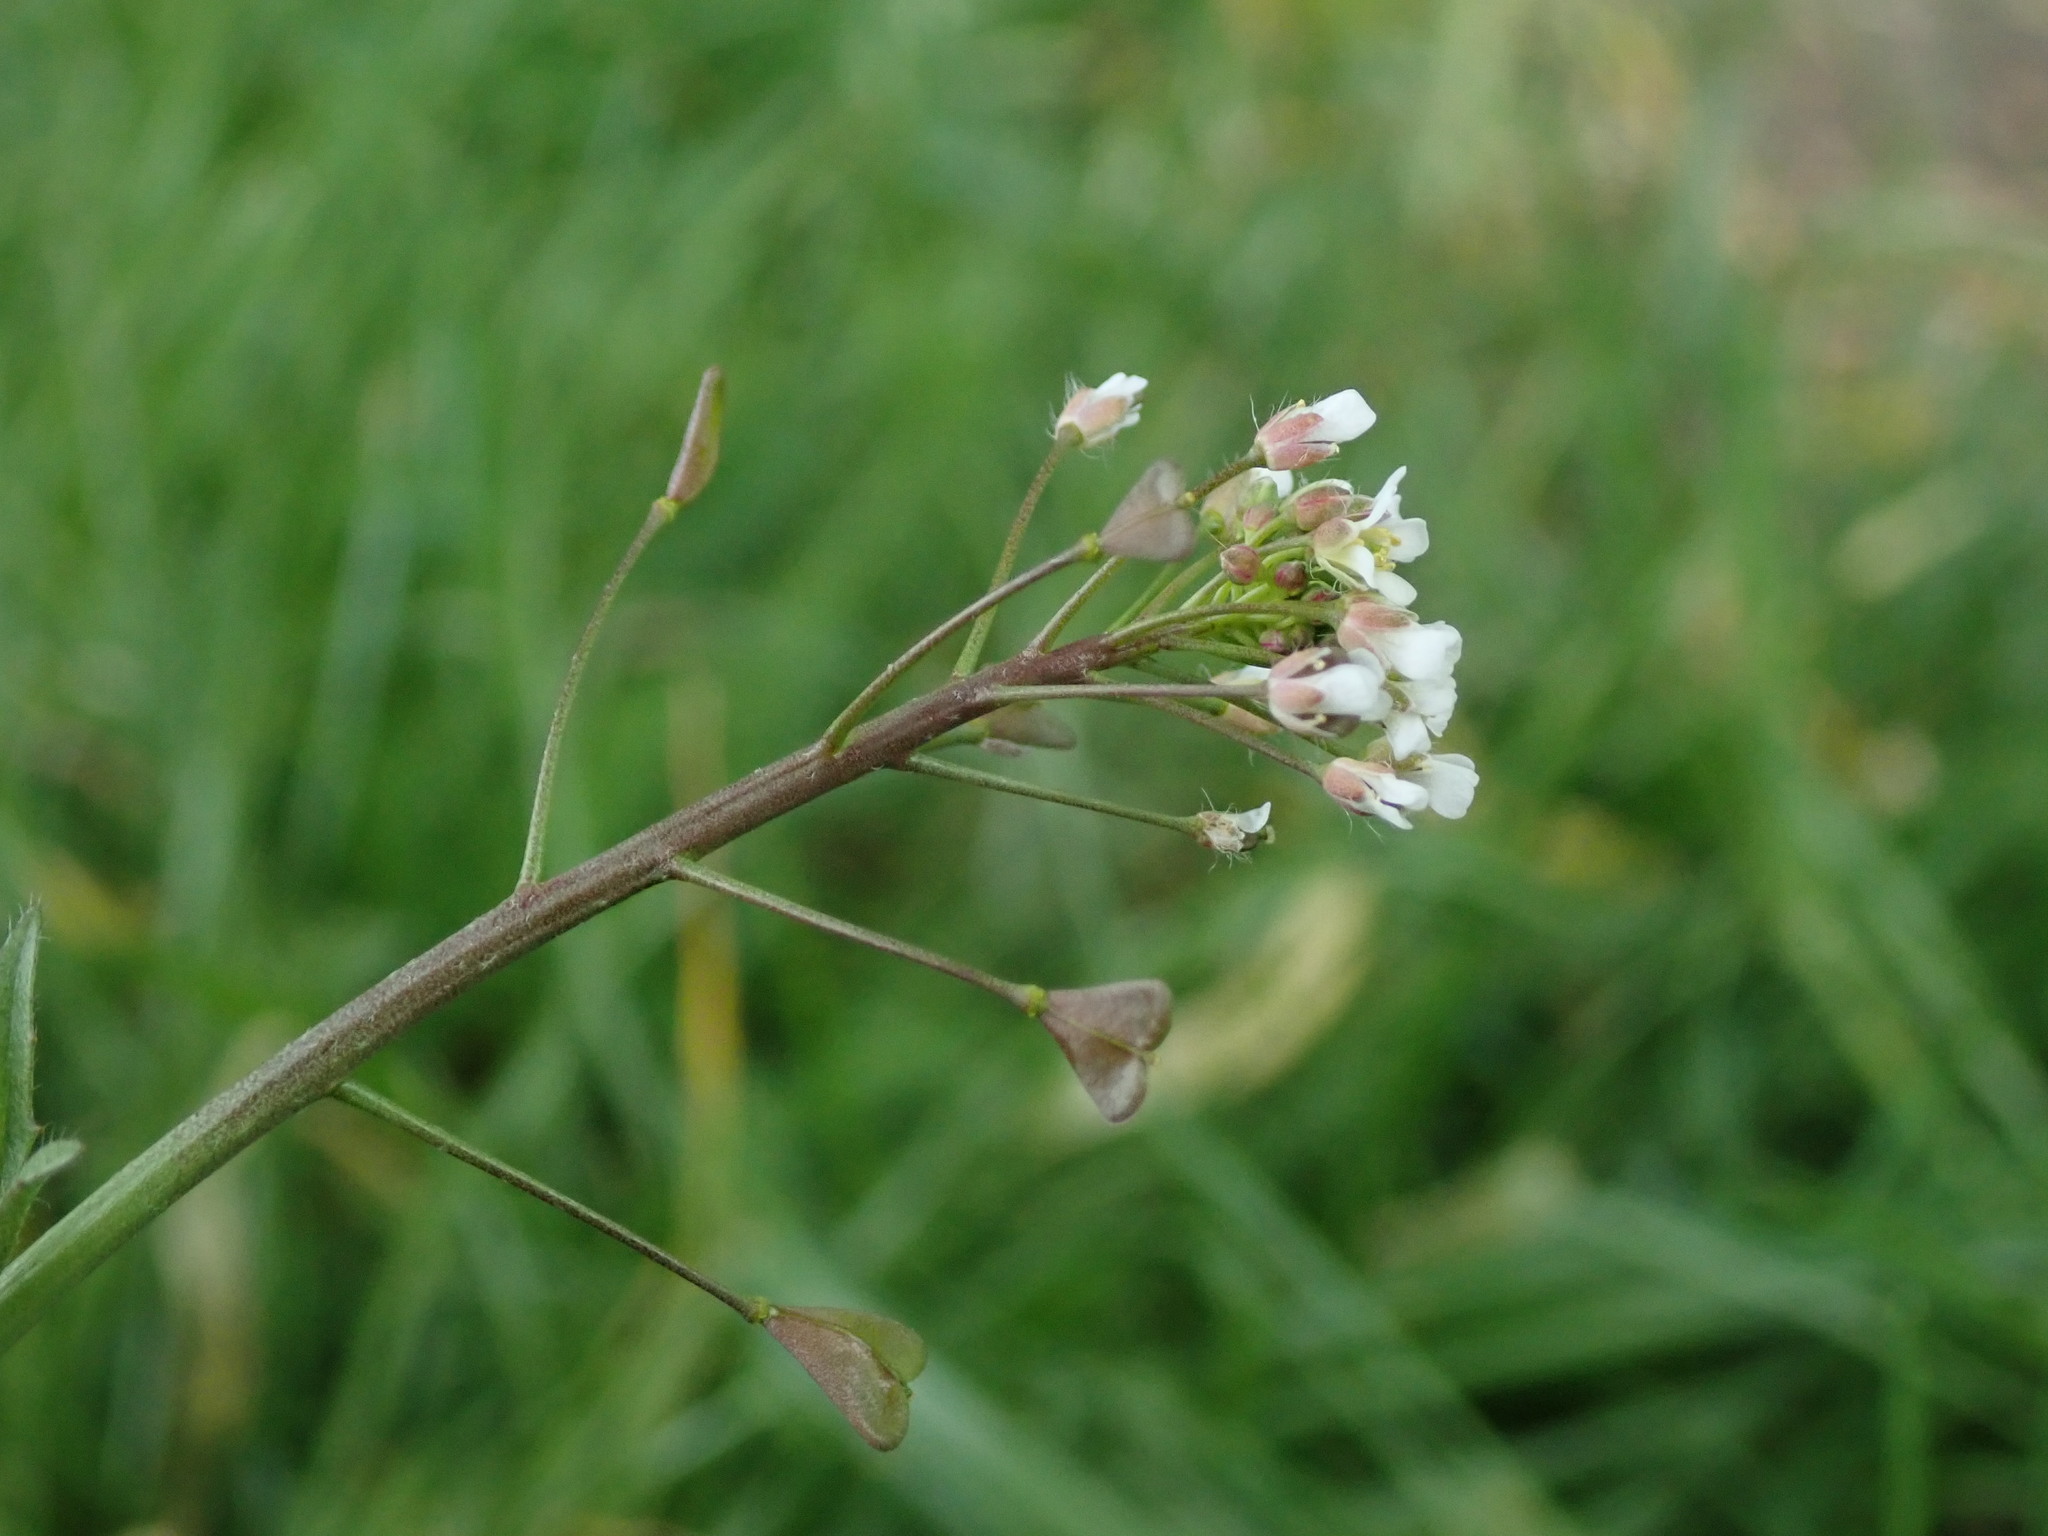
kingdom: Plantae
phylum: Tracheophyta
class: Magnoliopsida
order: Brassicales
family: Brassicaceae
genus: Capsella
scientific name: Capsella bursa-pastoris
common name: Shepherd's purse
